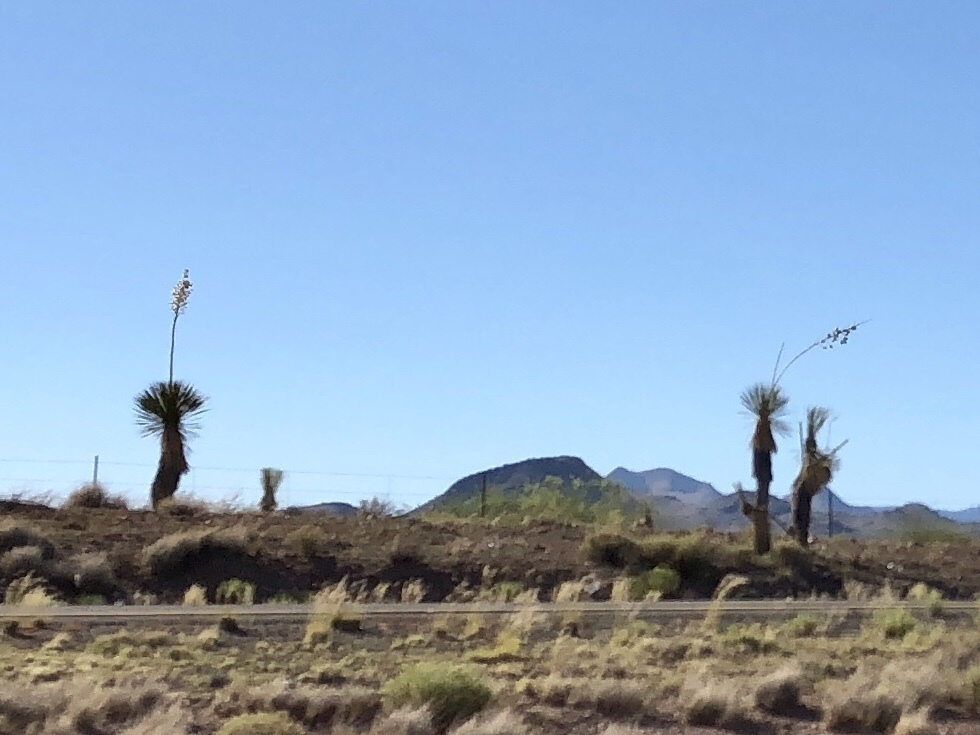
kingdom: Plantae
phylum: Tracheophyta
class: Liliopsida
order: Asparagales
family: Asparagaceae
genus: Yucca
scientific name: Yucca elata
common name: Palmella
